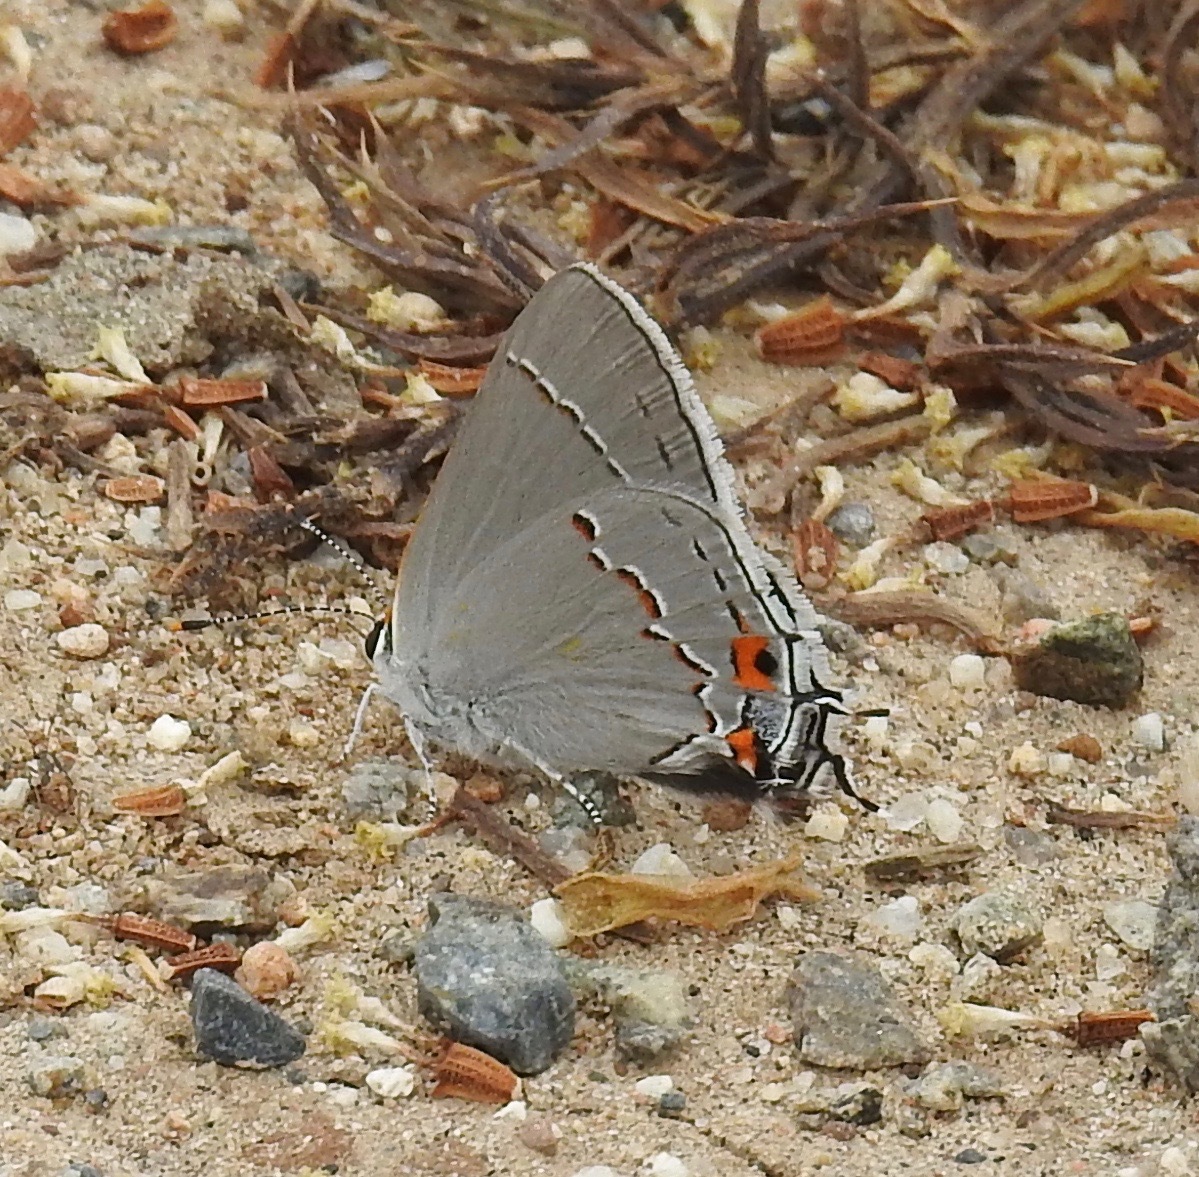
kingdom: Animalia
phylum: Arthropoda
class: Insecta
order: Lepidoptera
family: Lycaenidae
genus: Strymon
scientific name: Strymon melinus
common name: Gray hairstreak
